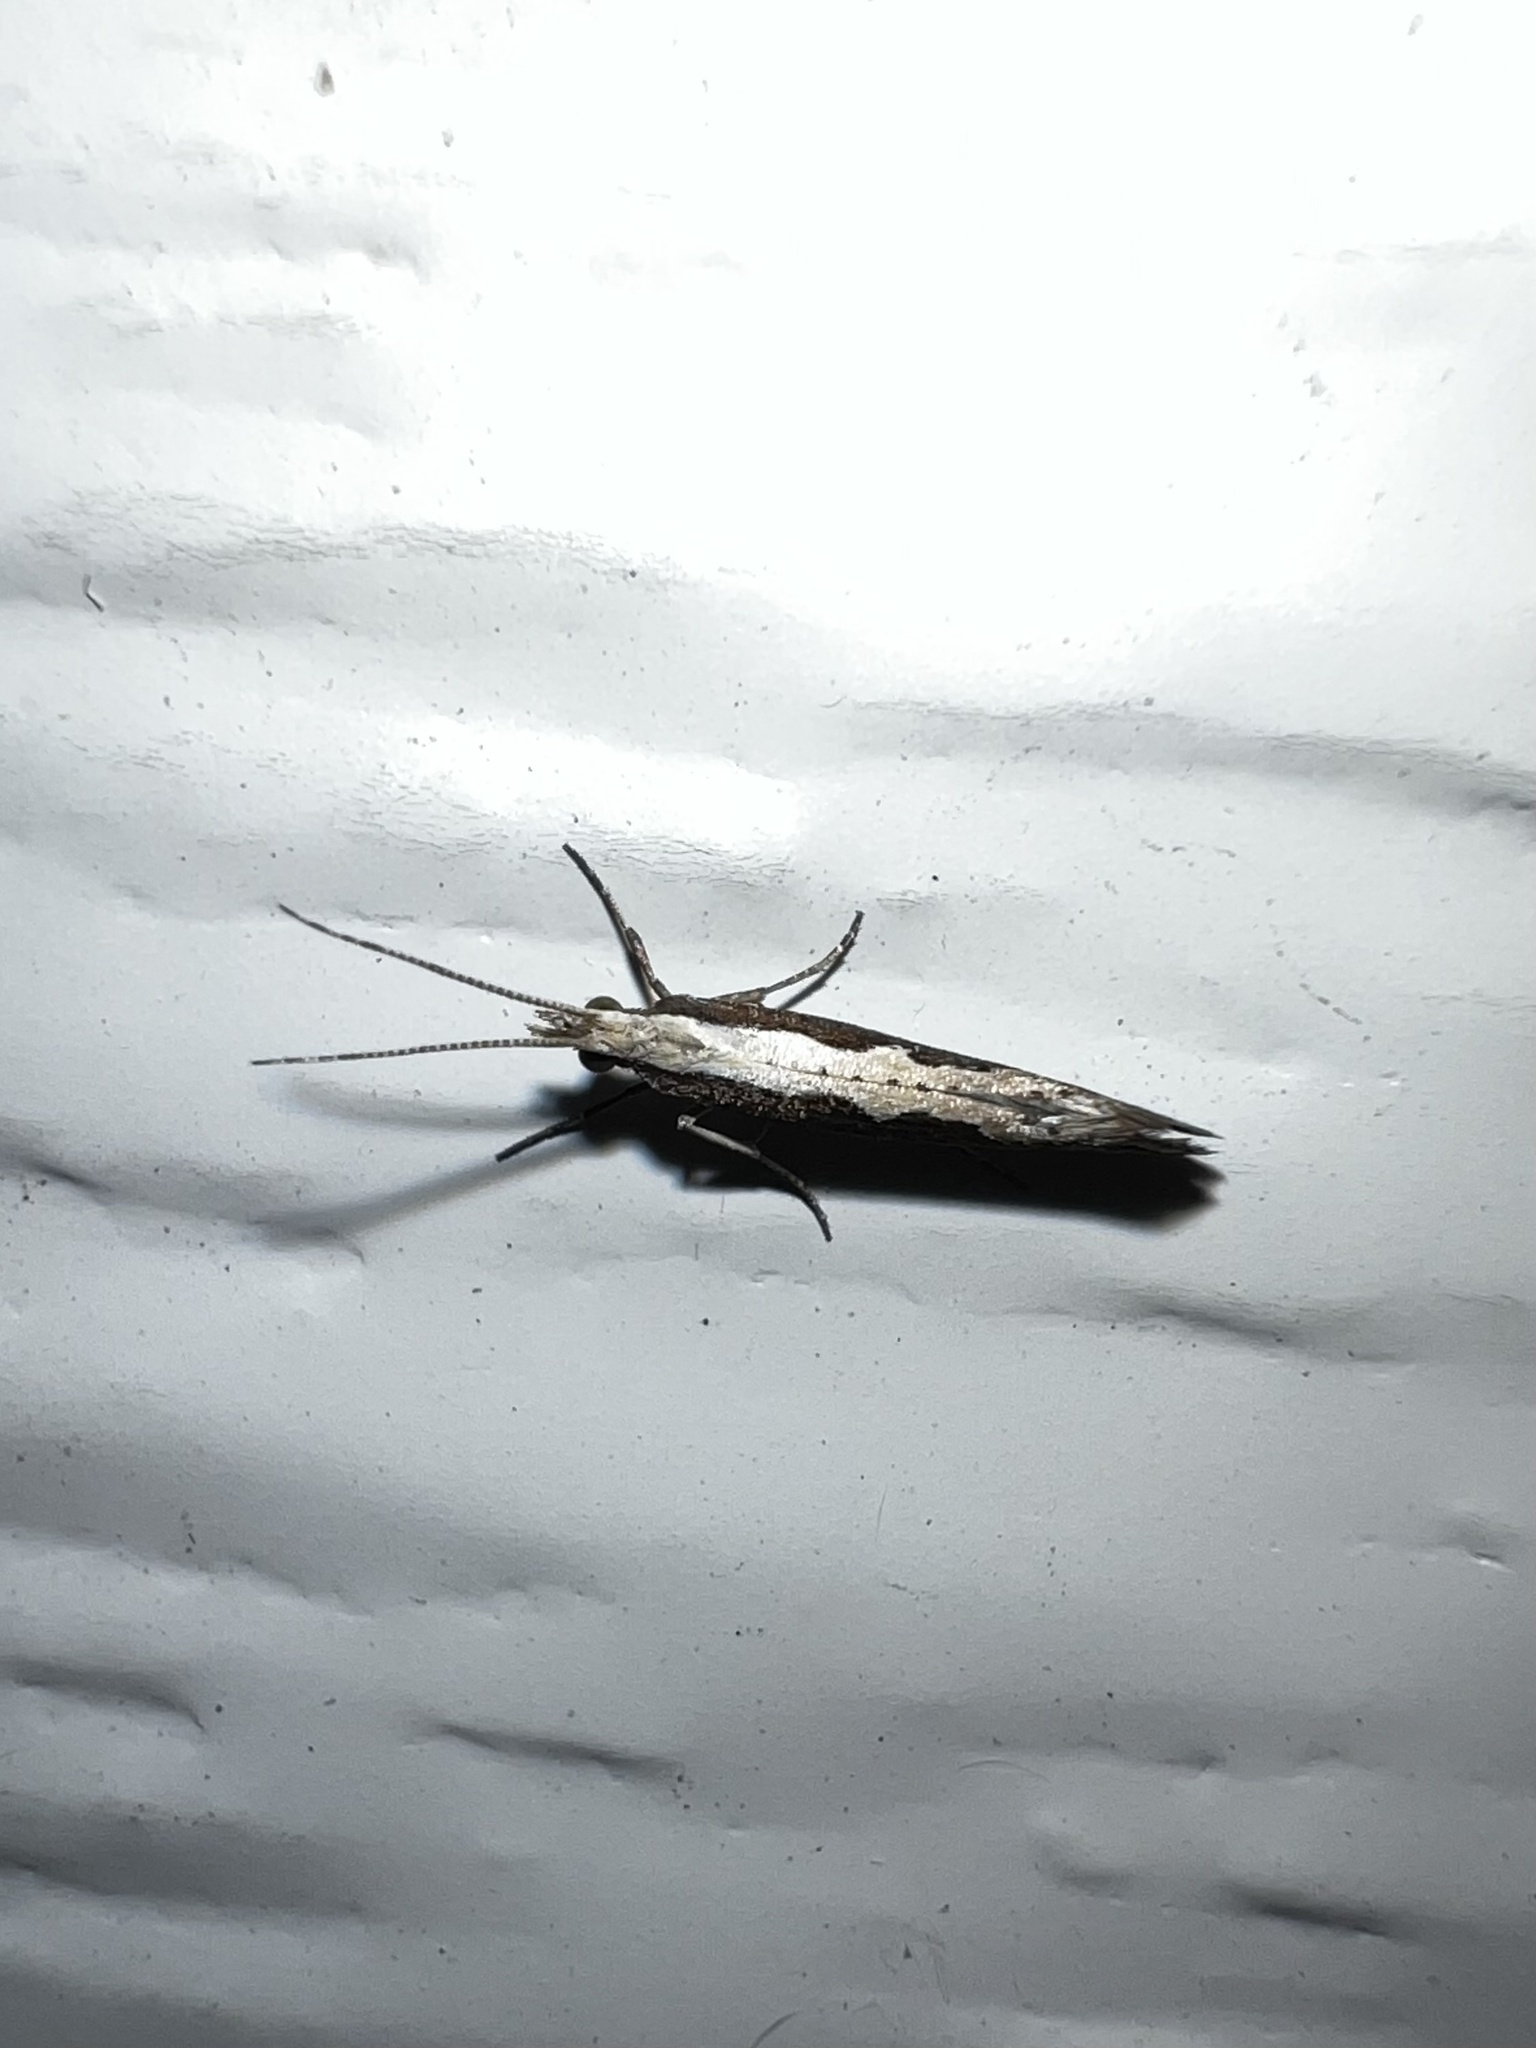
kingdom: Animalia
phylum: Arthropoda
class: Insecta
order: Lepidoptera
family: Plutellidae
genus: Plutella
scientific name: Plutella xylostella
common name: Diamond-back moth
